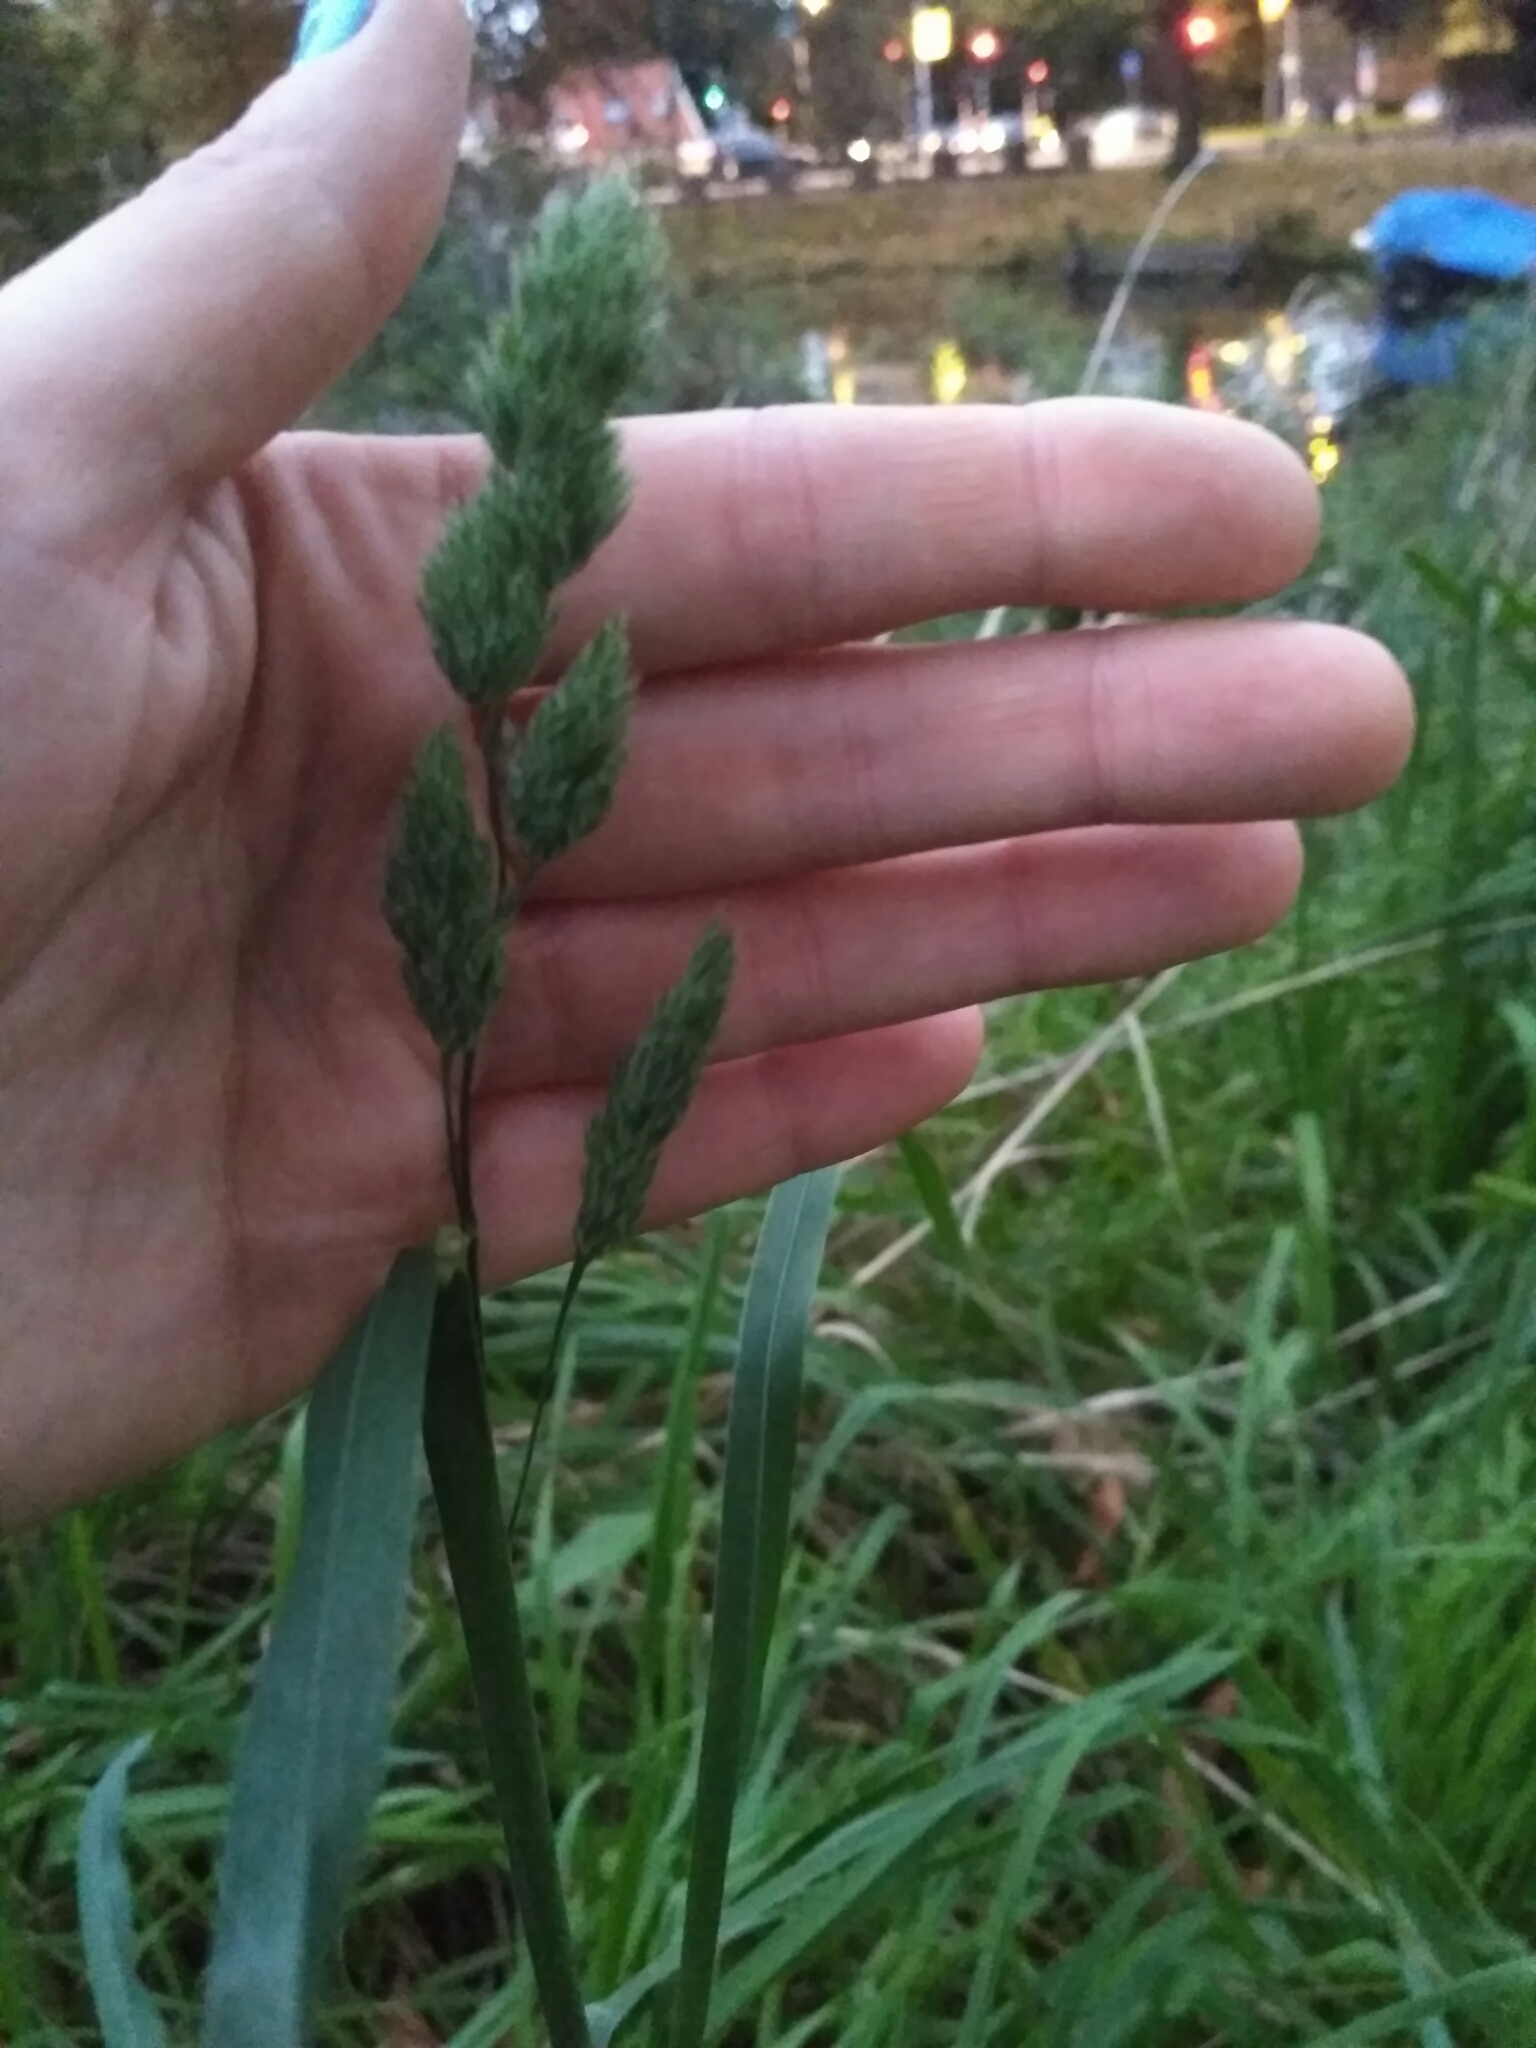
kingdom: Plantae
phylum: Tracheophyta
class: Liliopsida
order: Poales
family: Poaceae
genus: Dactylis
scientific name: Dactylis glomerata
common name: Orchardgrass
